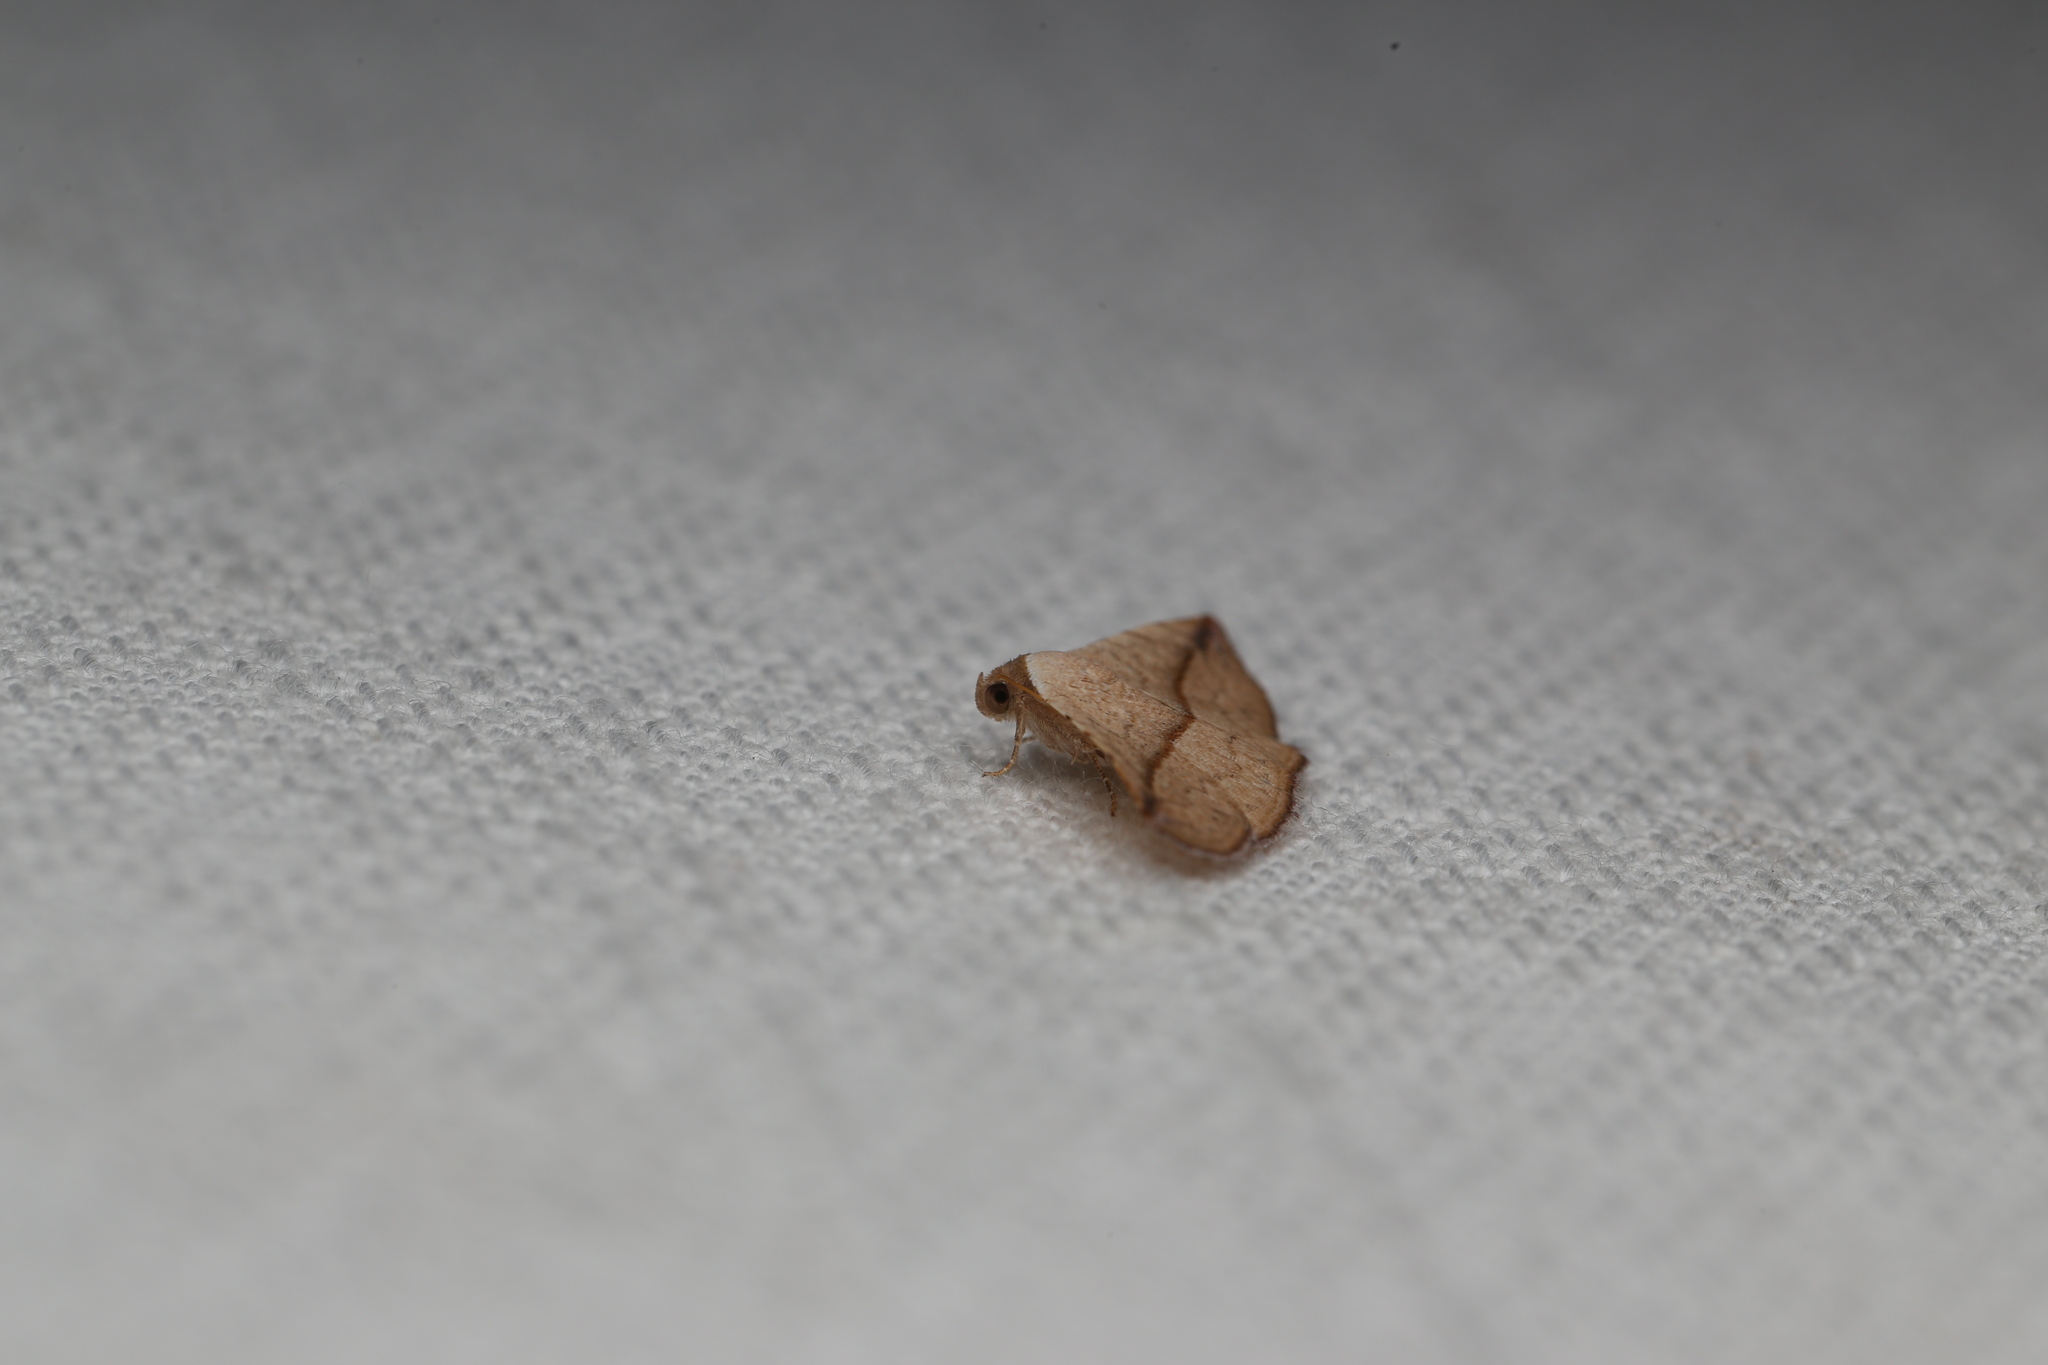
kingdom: Animalia
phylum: Arthropoda
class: Insecta
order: Lepidoptera
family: Noctuidae
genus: Eublemma
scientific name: Eublemma perversicolor
